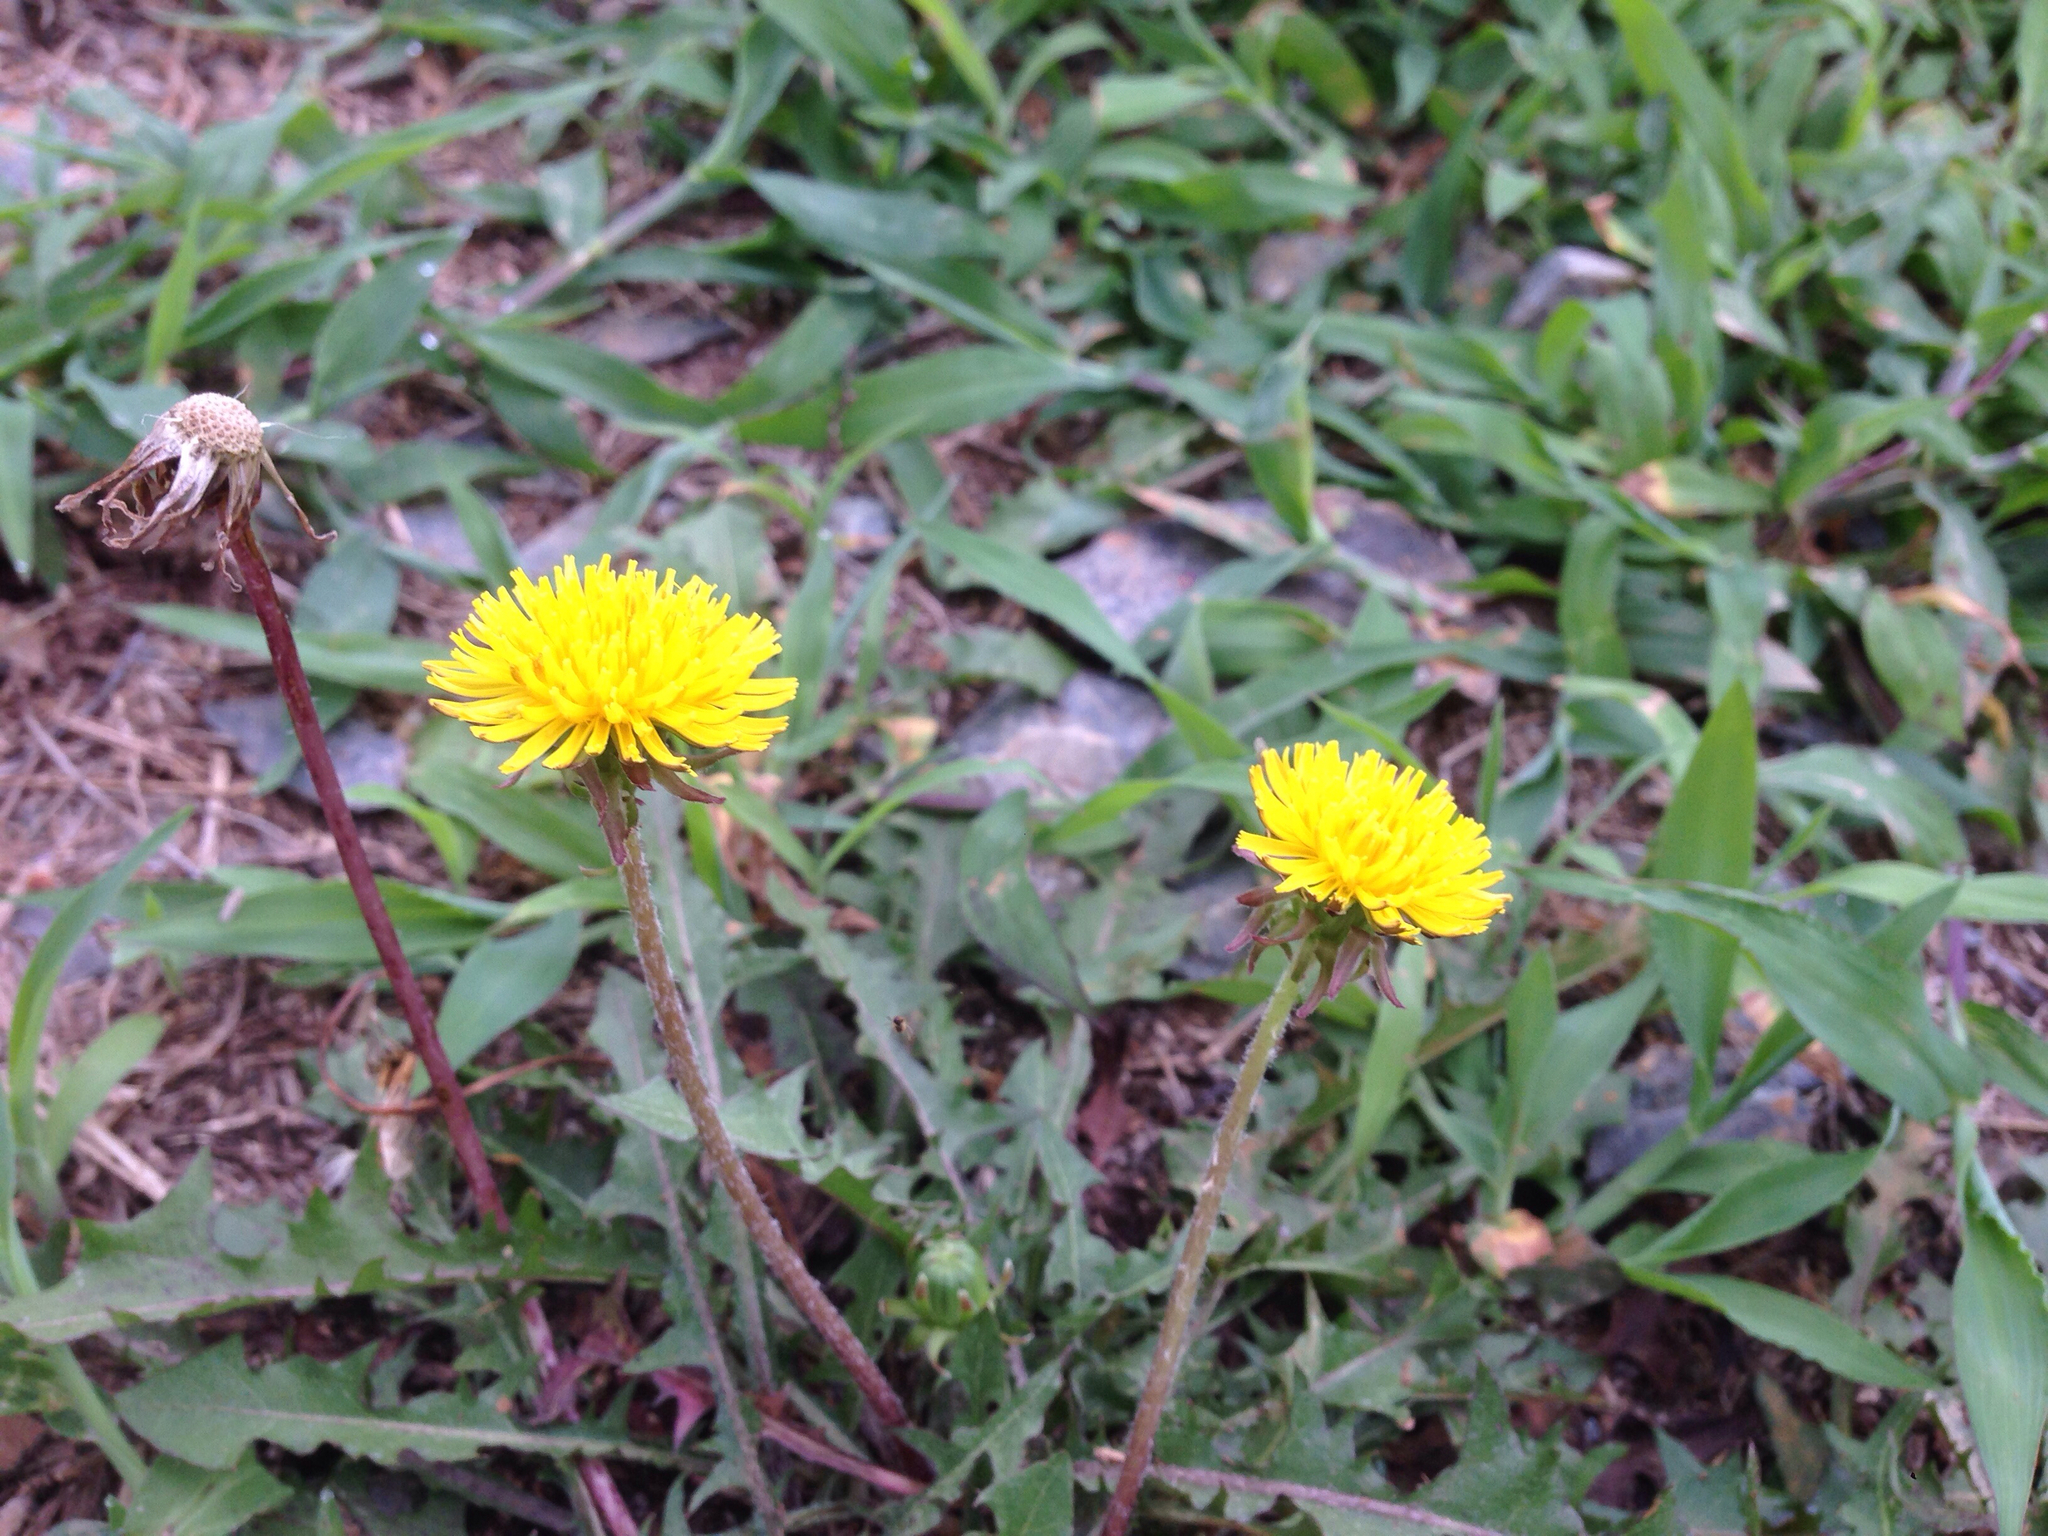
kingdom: Plantae
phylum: Tracheophyta
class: Magnoliopsida
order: Asterales
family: Asteraceae
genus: Taraxacum
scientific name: Taraxacum officinale
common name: Common dandelion
